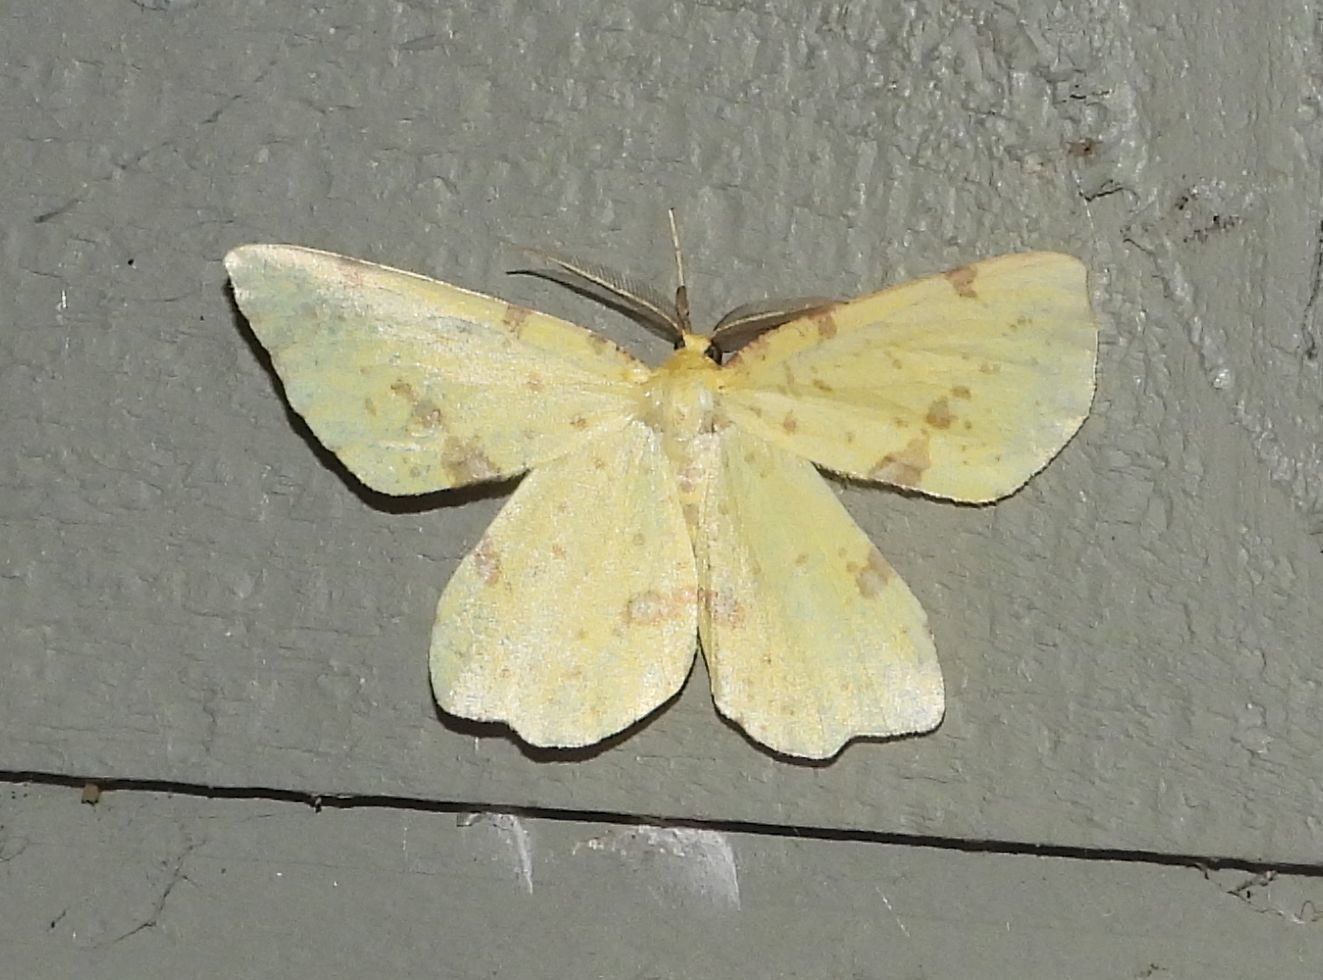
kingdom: Animalia
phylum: Arthropoda
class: Insecta
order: Lepidoptera
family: Geometridae
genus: Xanthotype
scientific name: Xanthotype
